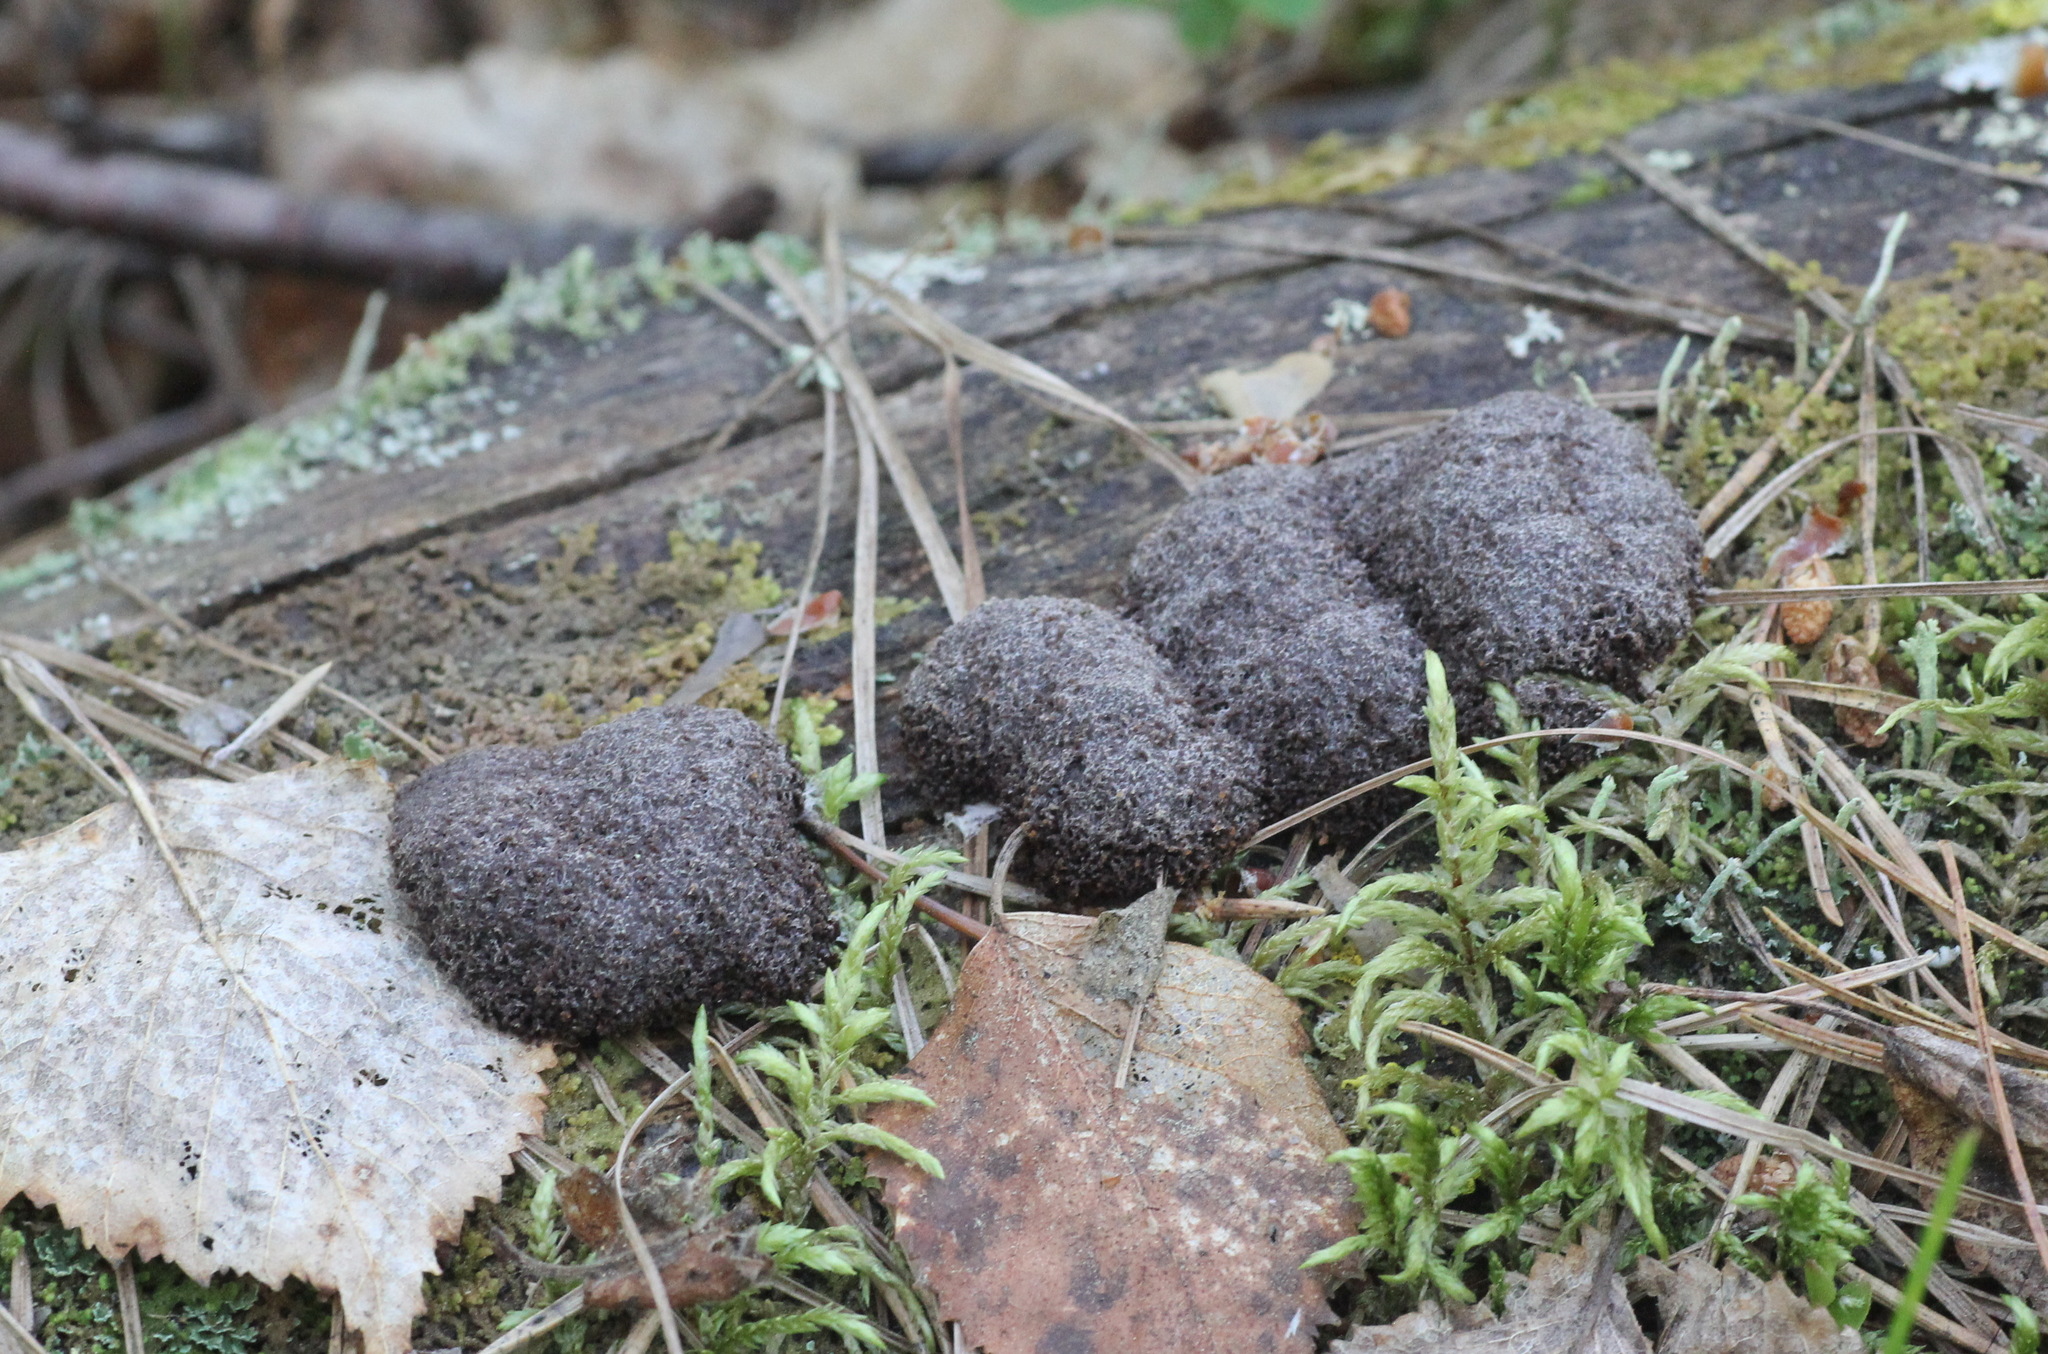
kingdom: Protozoa
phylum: Mycetozoa
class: Myxomycetes
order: Cribrariales
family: Tubiferaceae
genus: Reticularia
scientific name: Reticularia lycoperdon
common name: False puffball
